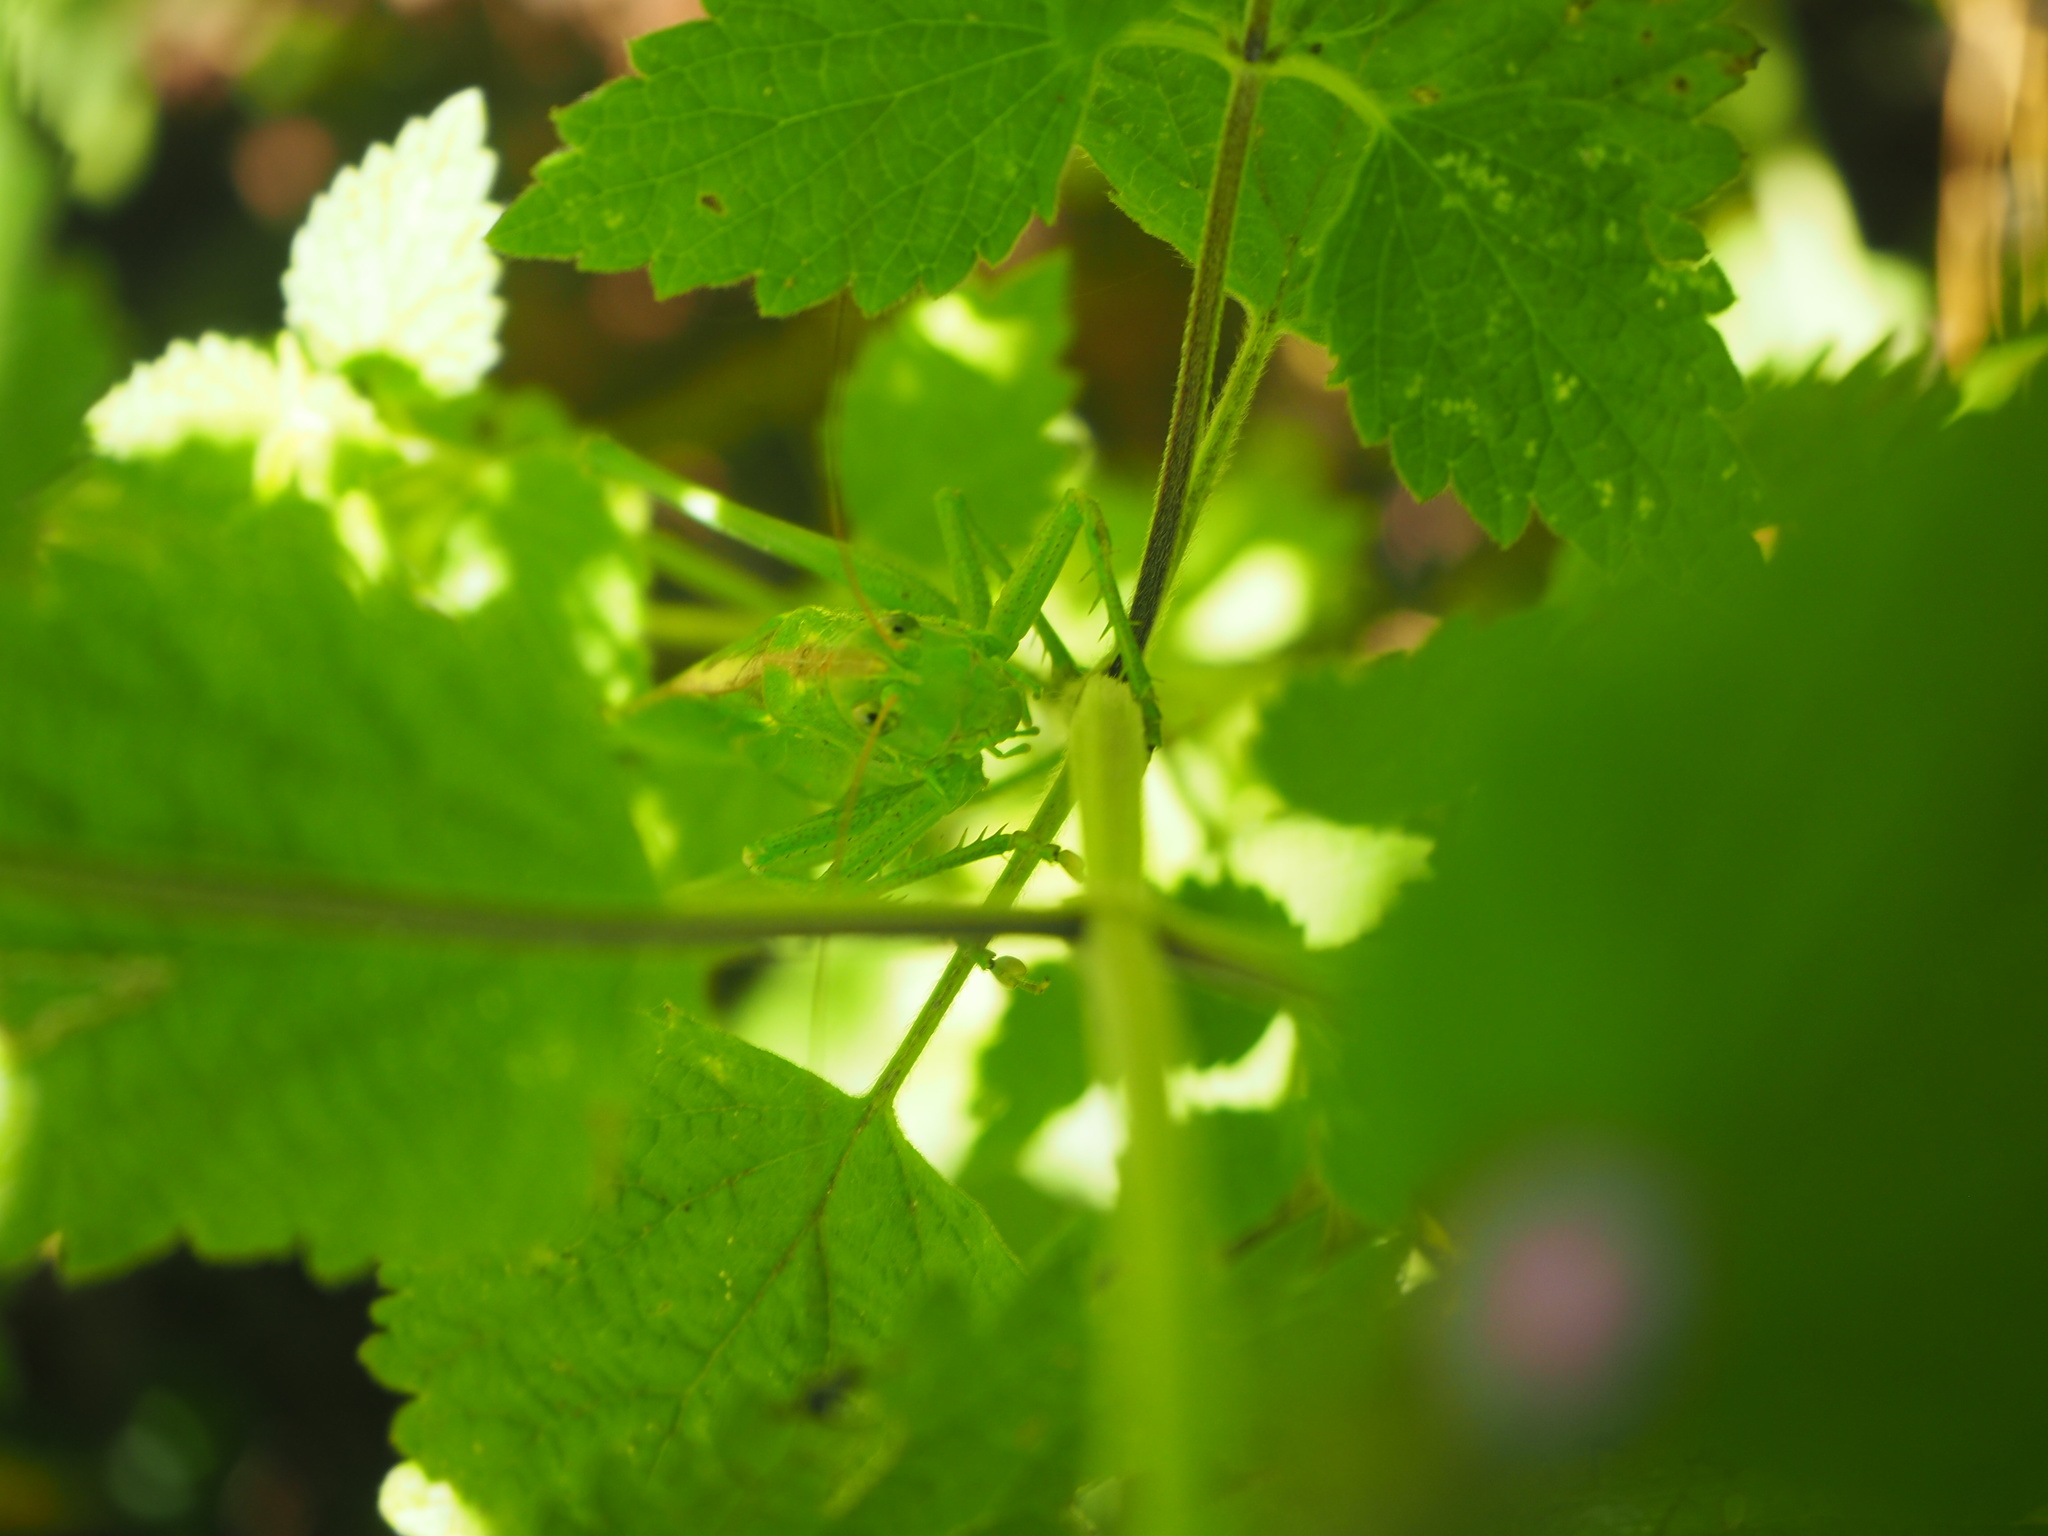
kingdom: Animalia
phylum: Arthropoda
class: Insecta
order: Orthoptera
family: Tettigoniidae
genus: Tettigonia
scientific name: Tettigonia viridissima
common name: Great green bush-cricket
